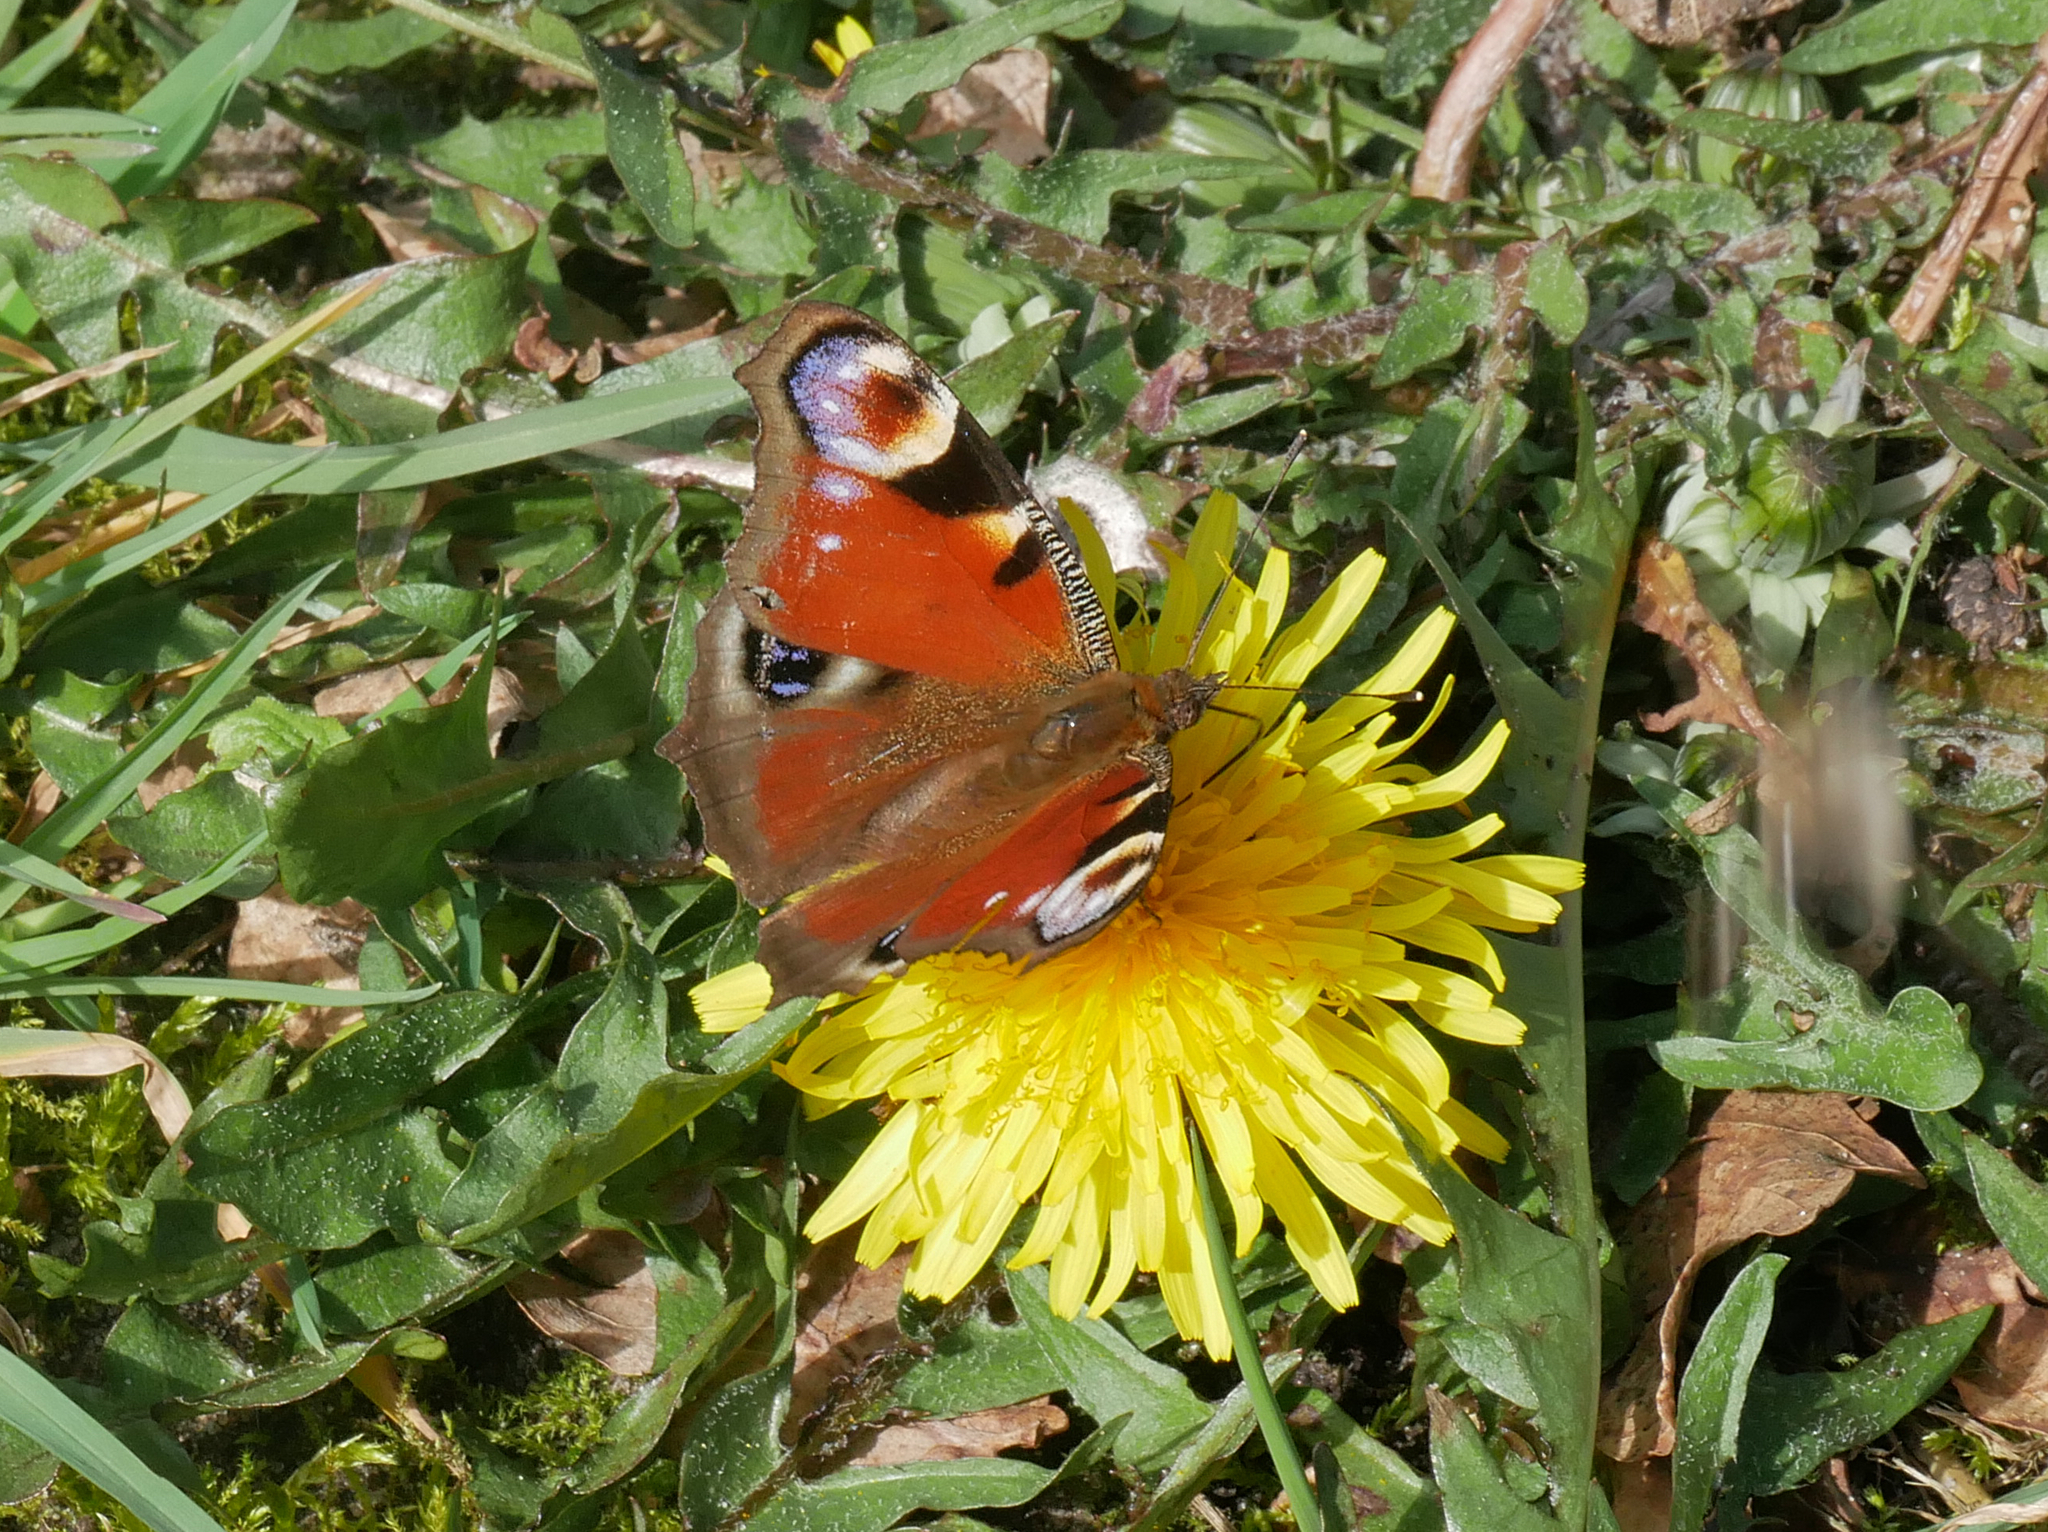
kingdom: Animalia
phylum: Arthropoda
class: Insecta
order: Lepidoptera
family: Nymphalidae
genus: Aglais
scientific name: Aglais io
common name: Peacock
